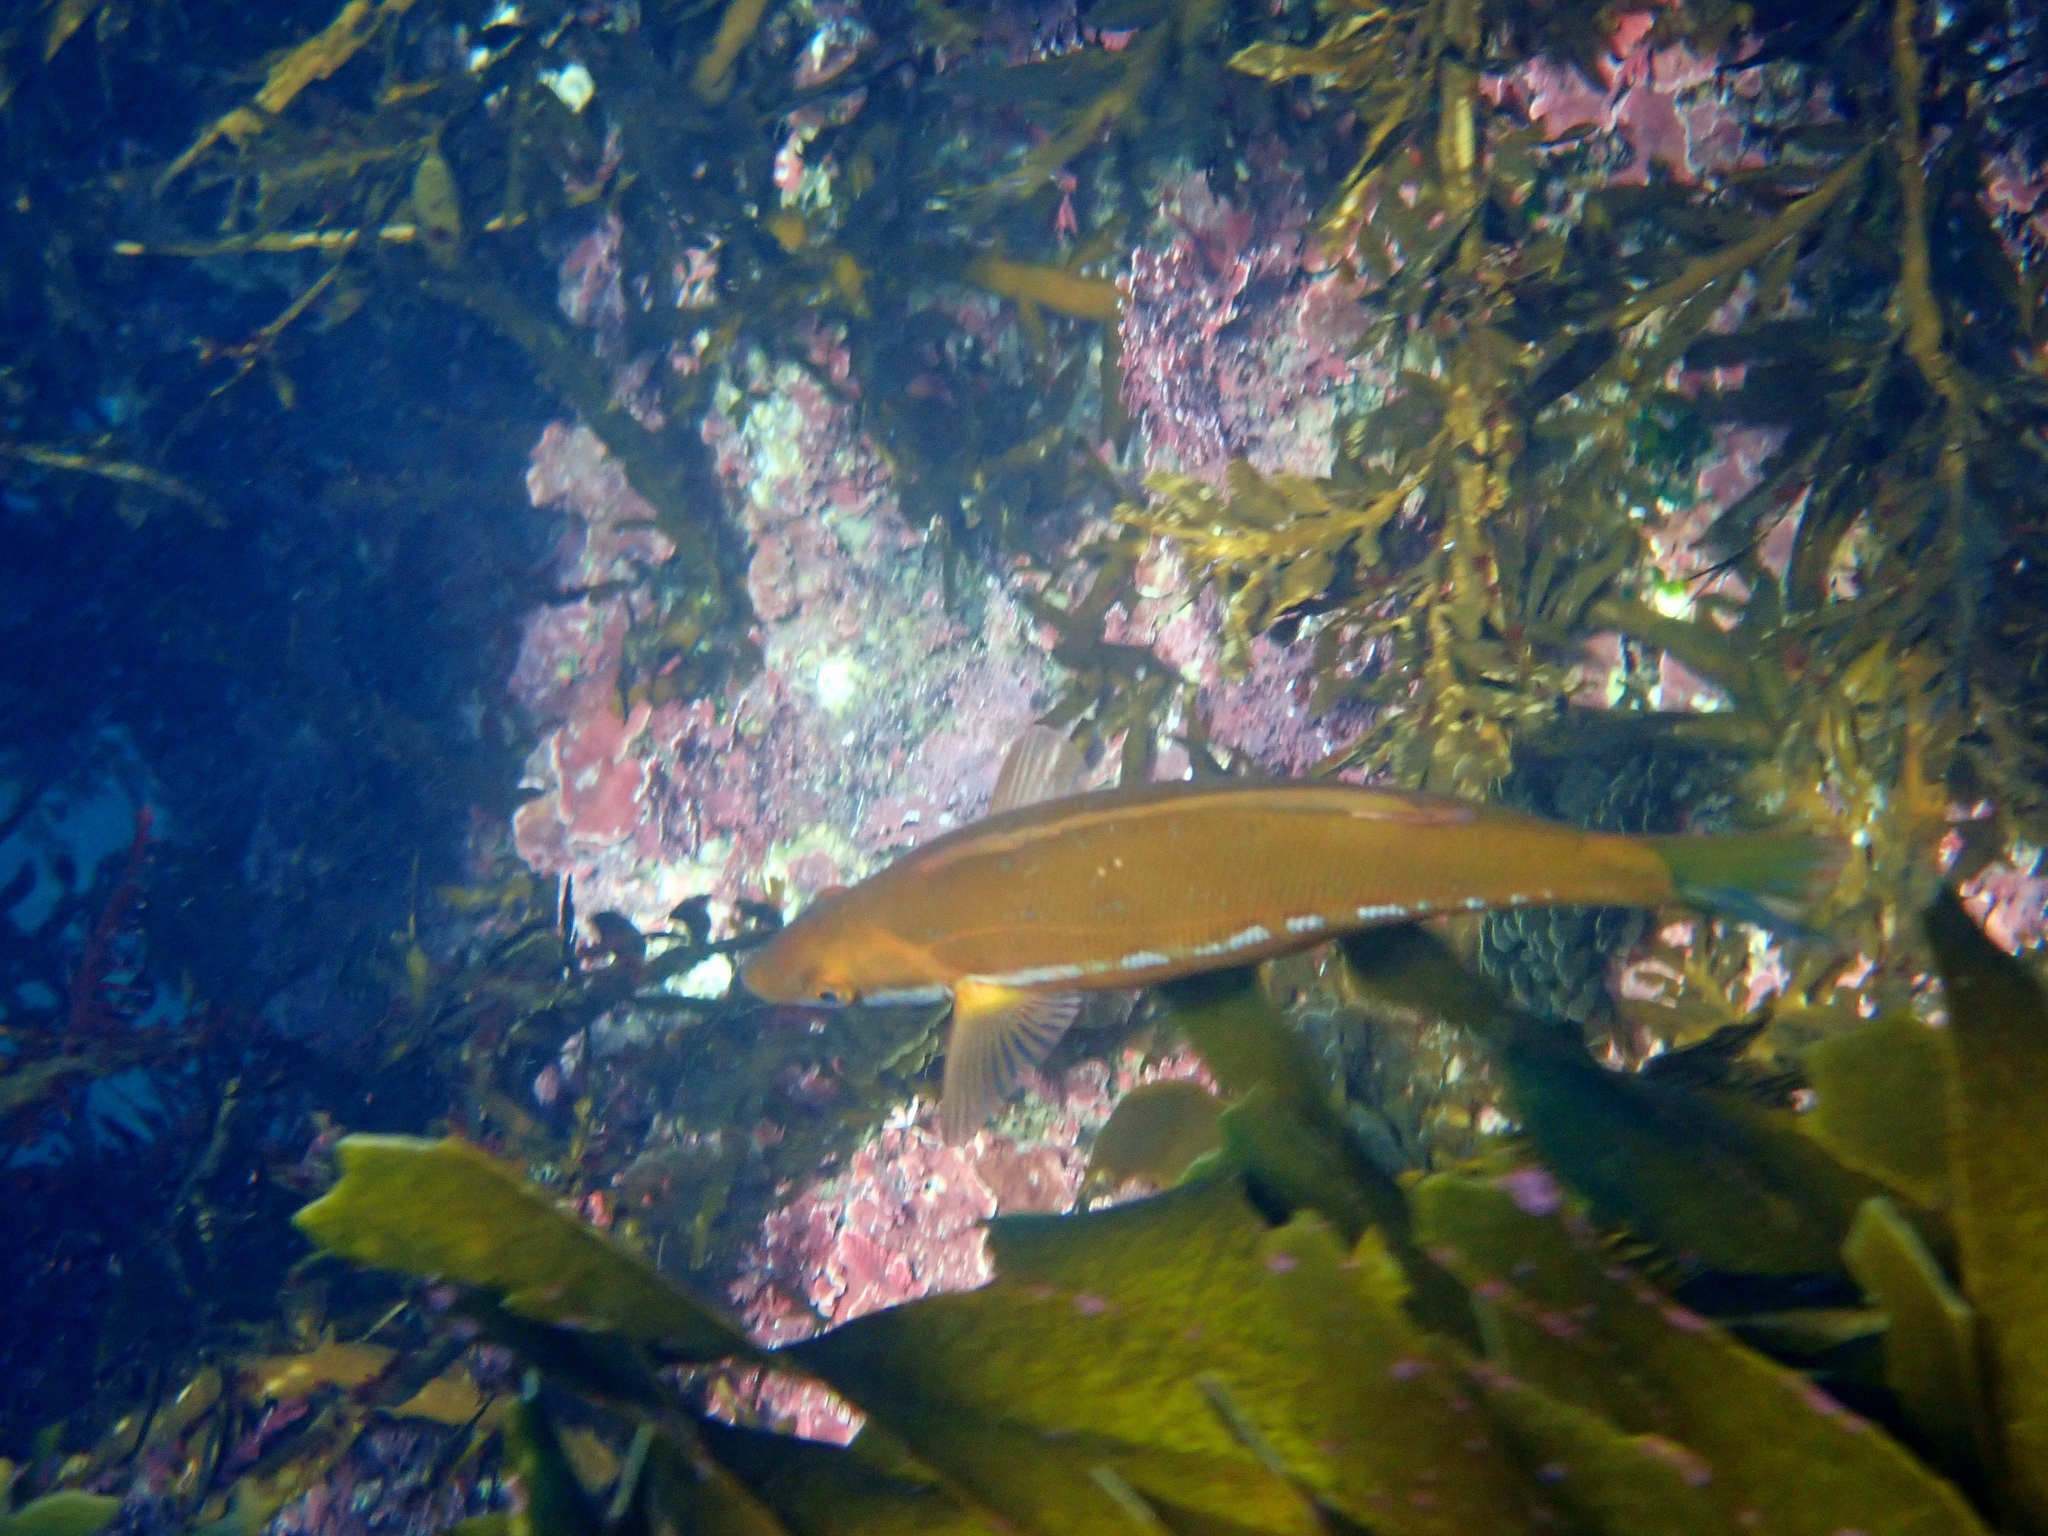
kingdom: Animalia
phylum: Chordata
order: Perciformes
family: Odacidae
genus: Odax
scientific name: Odax pullus
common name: Butterfish
